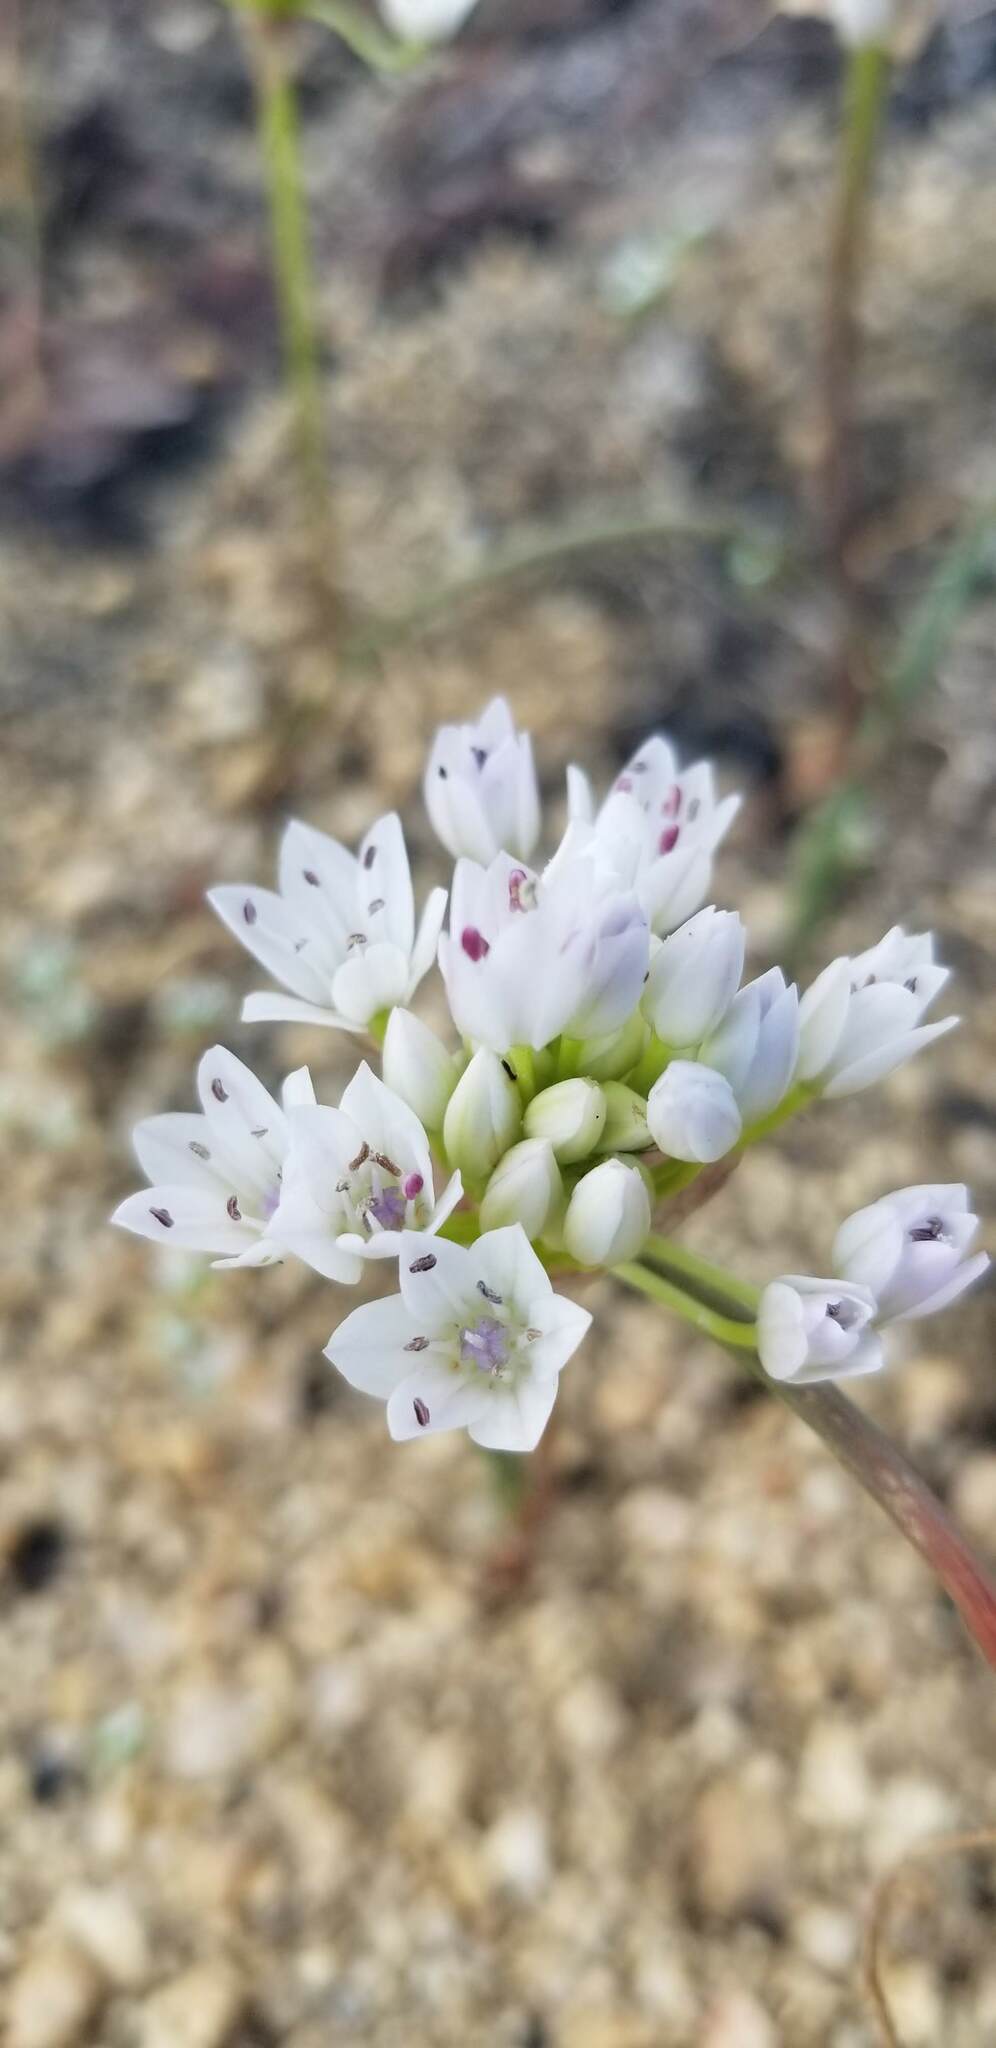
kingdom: Plantae
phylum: Tracheophyta
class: Liliopsida
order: Asparagales
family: Amaryllidaceae
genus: Allium
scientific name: Allium parryi
